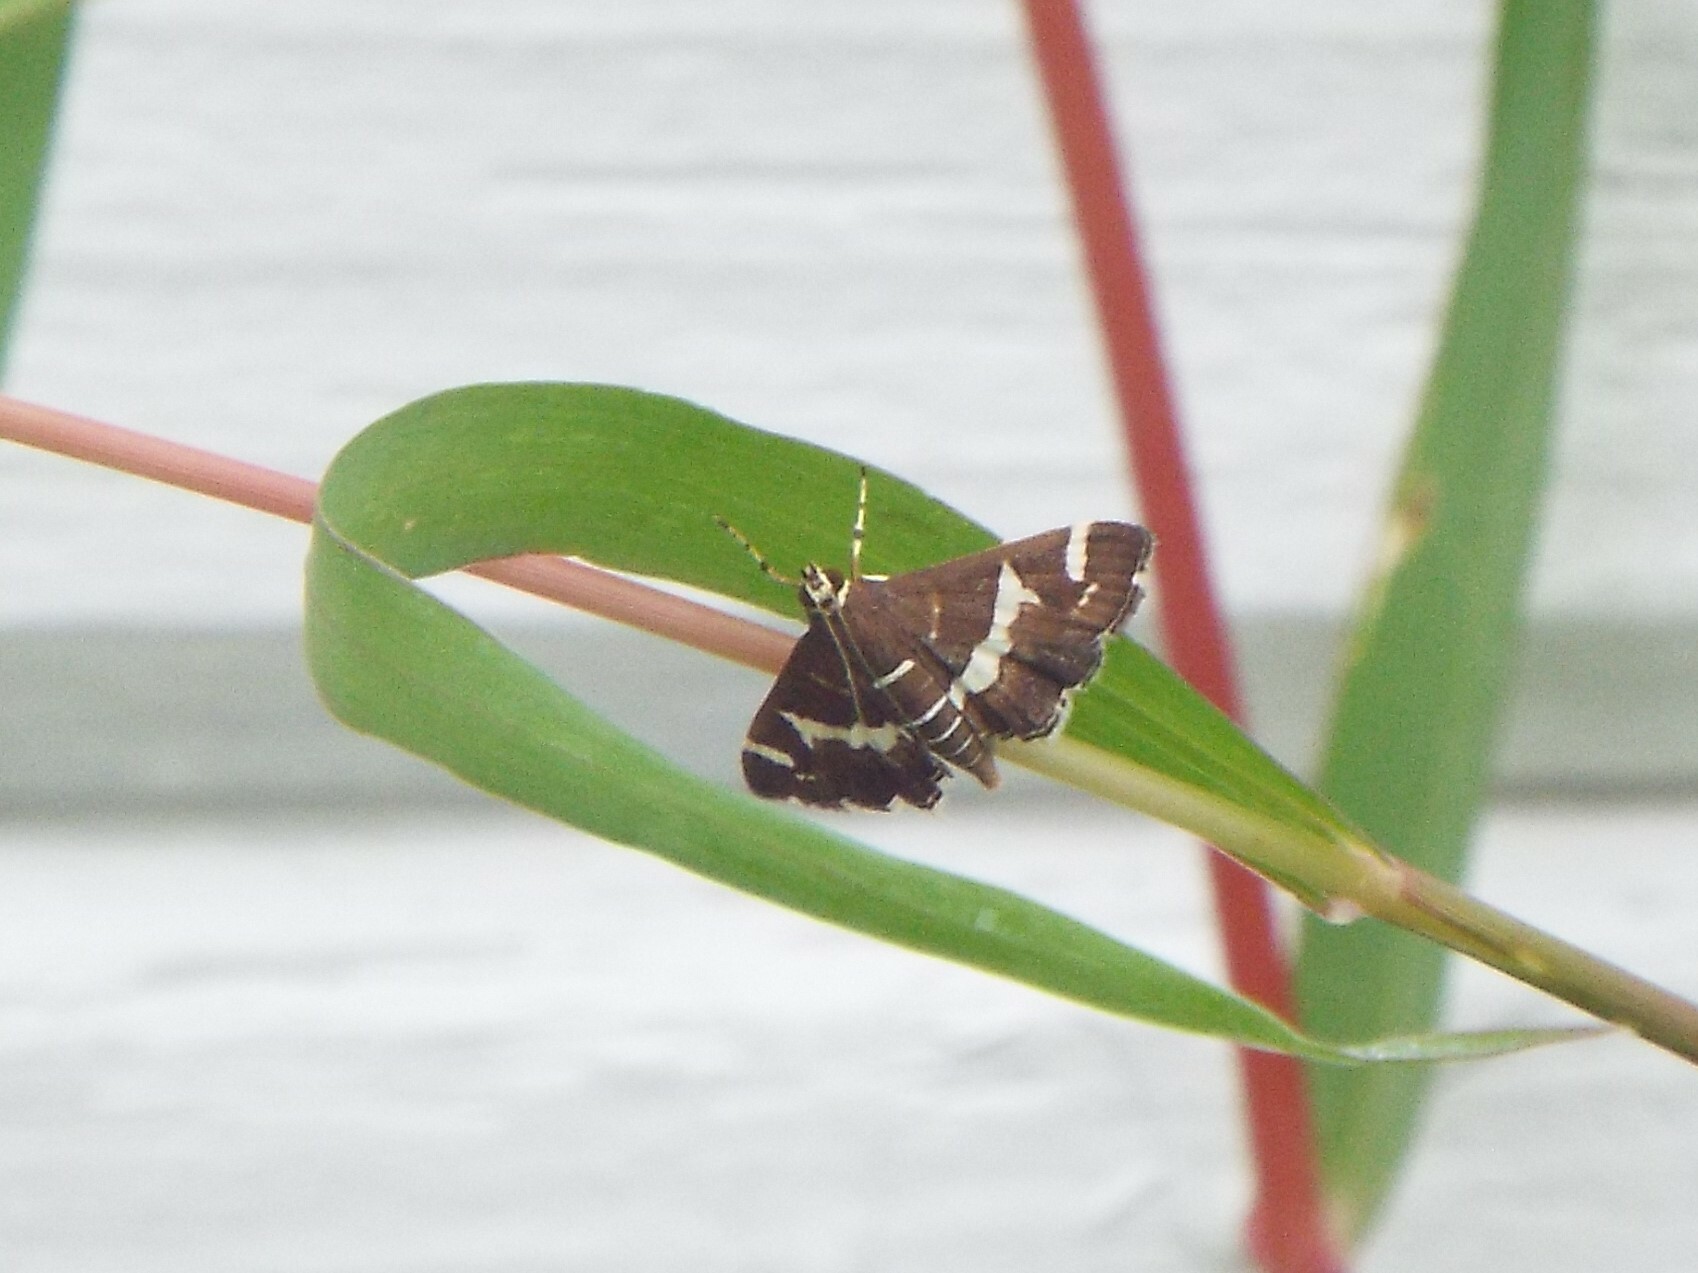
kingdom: Animalia
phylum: Arthropoda
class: Insecta
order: Lepidoptera
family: Crambidae
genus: Spoladea
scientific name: Spoladea recurvalis
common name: Beet webworm moth
